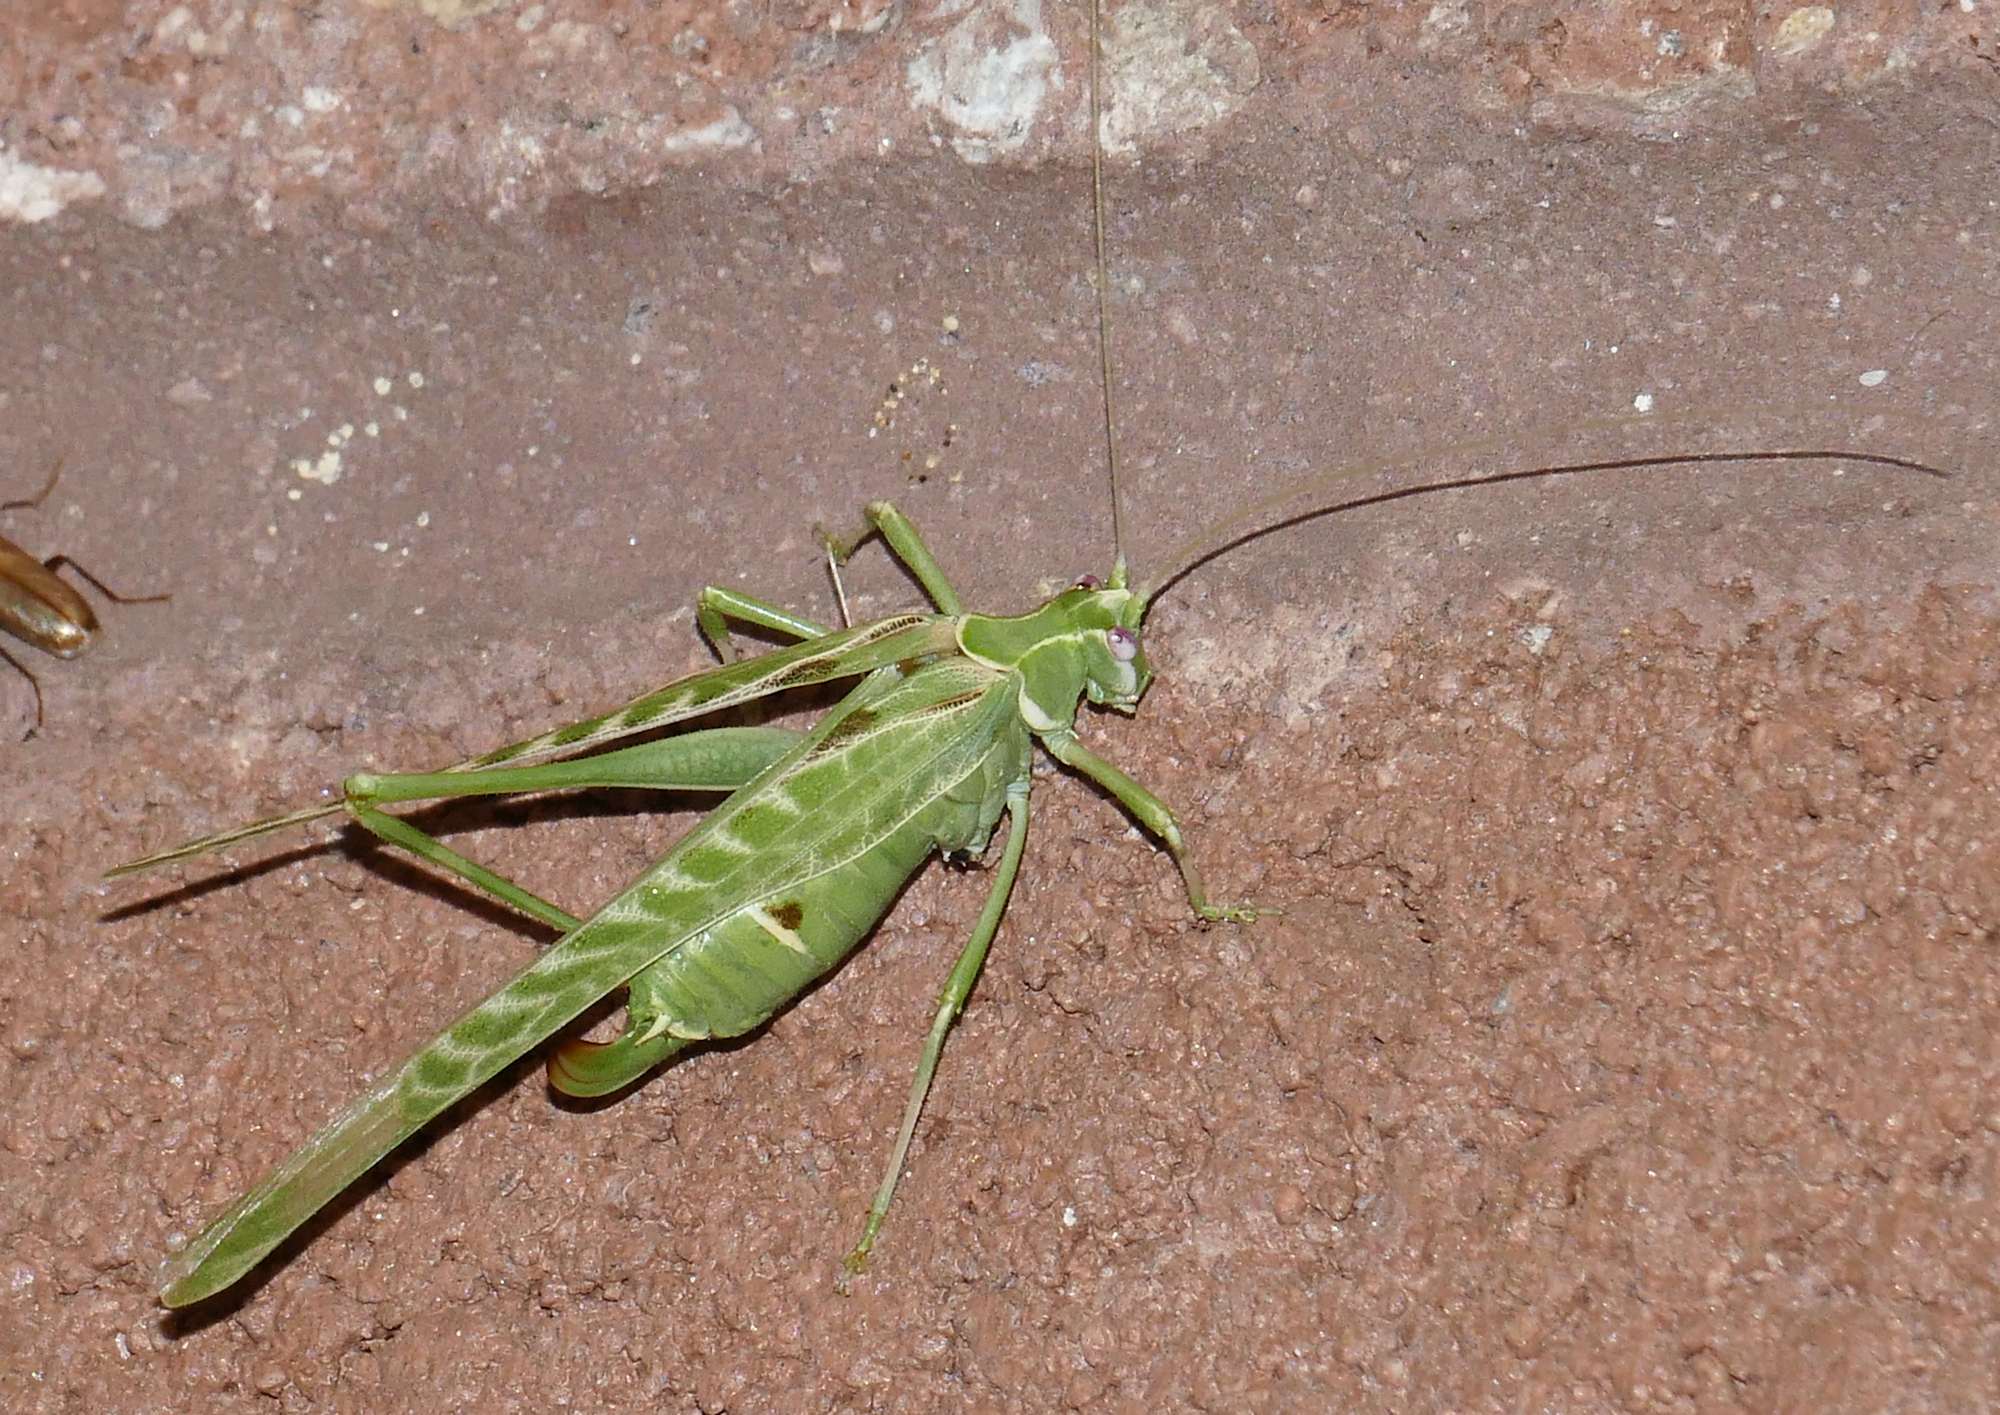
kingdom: Animalia
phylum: Arthropoda
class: Insecta
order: Orthoptera
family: Tettigoniidae
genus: Insara
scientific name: Insara elegans
